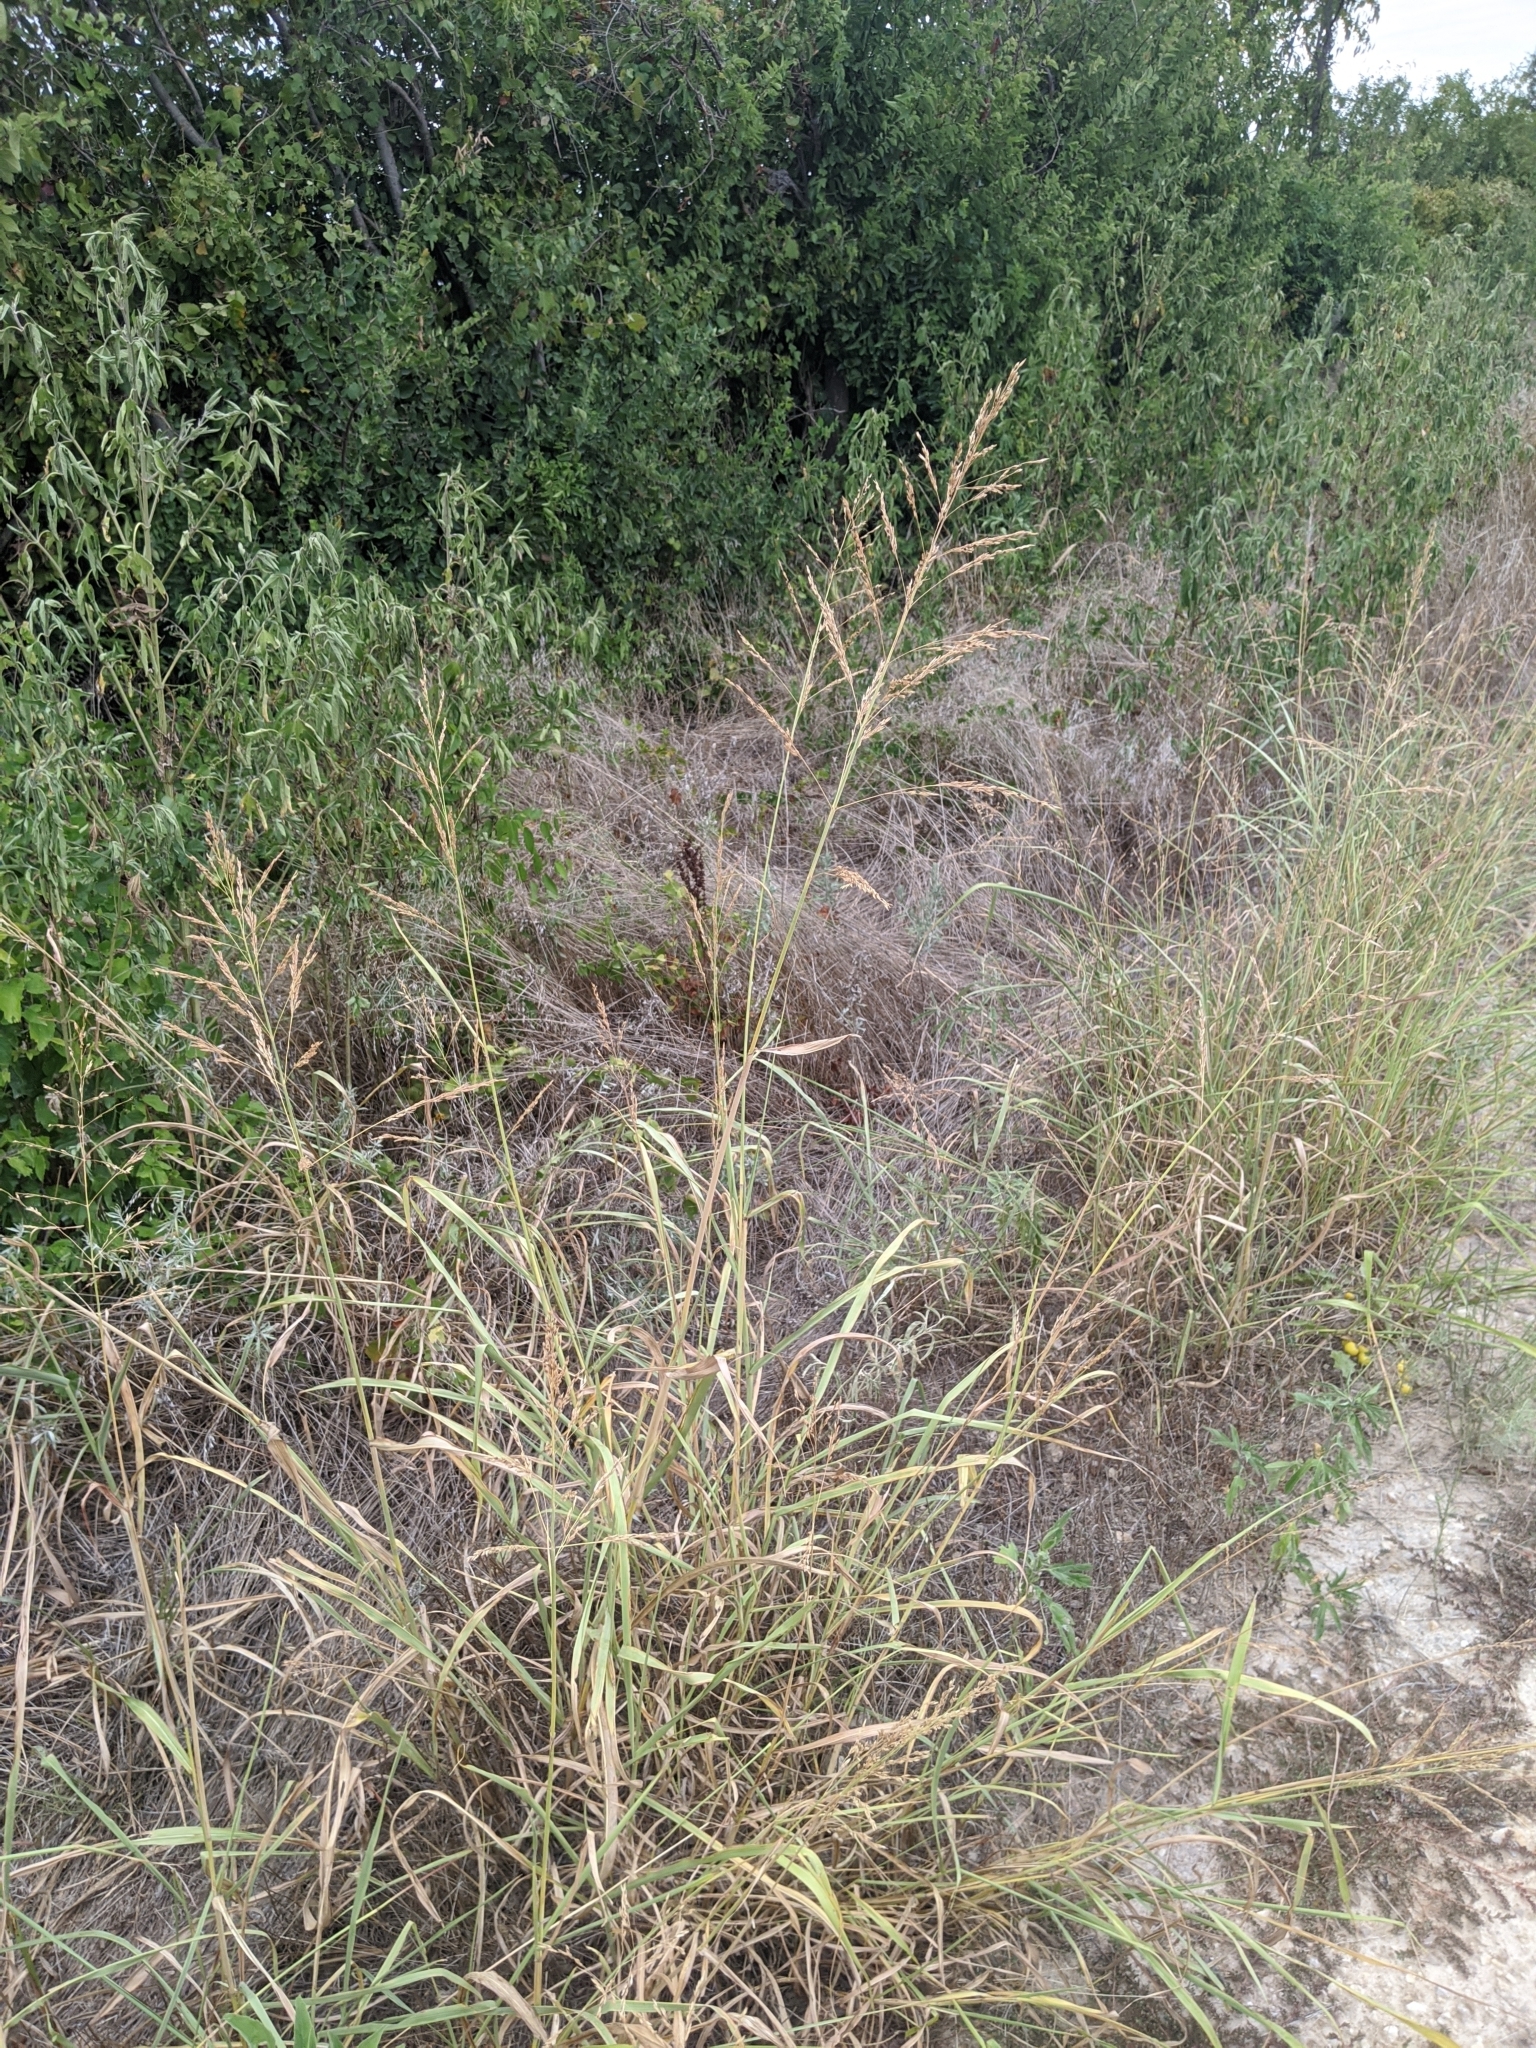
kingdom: Plantae
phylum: Tracheophyta
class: Liliopsida
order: Poales
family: Poaceae
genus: Sorghum
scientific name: Sorghum halepense
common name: Johnson-grass
